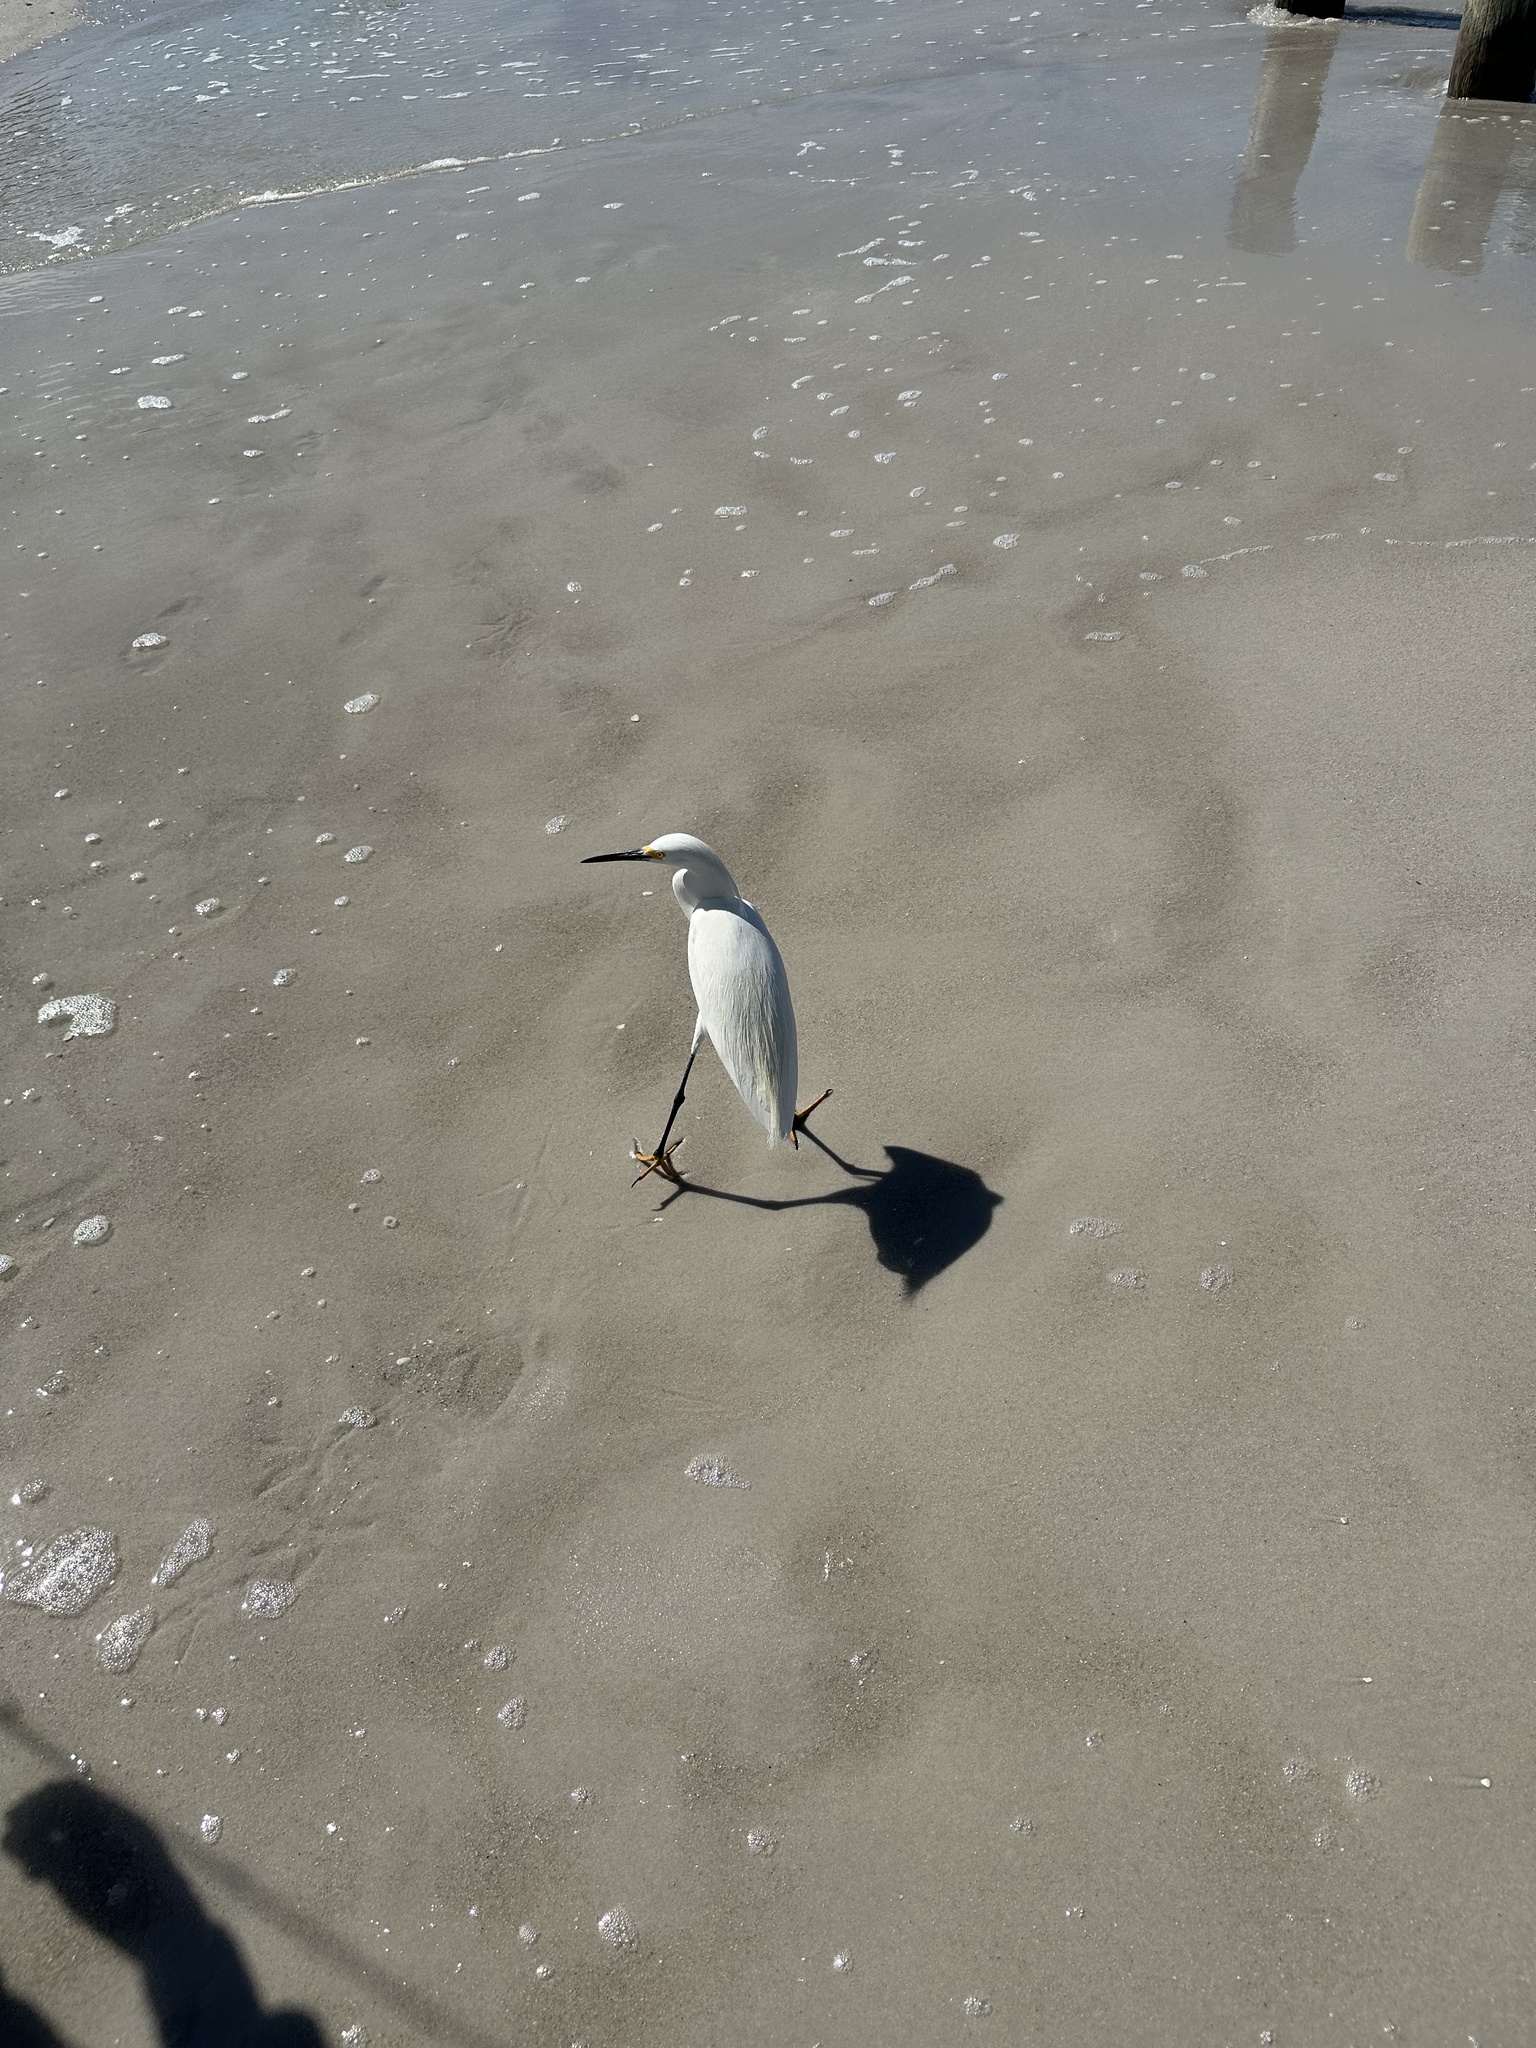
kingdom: Animalia
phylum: Chordata
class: Aves
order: Pelecaniformes
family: Ardeidae
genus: Egretta
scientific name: Egretta thula
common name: Snowy egret
